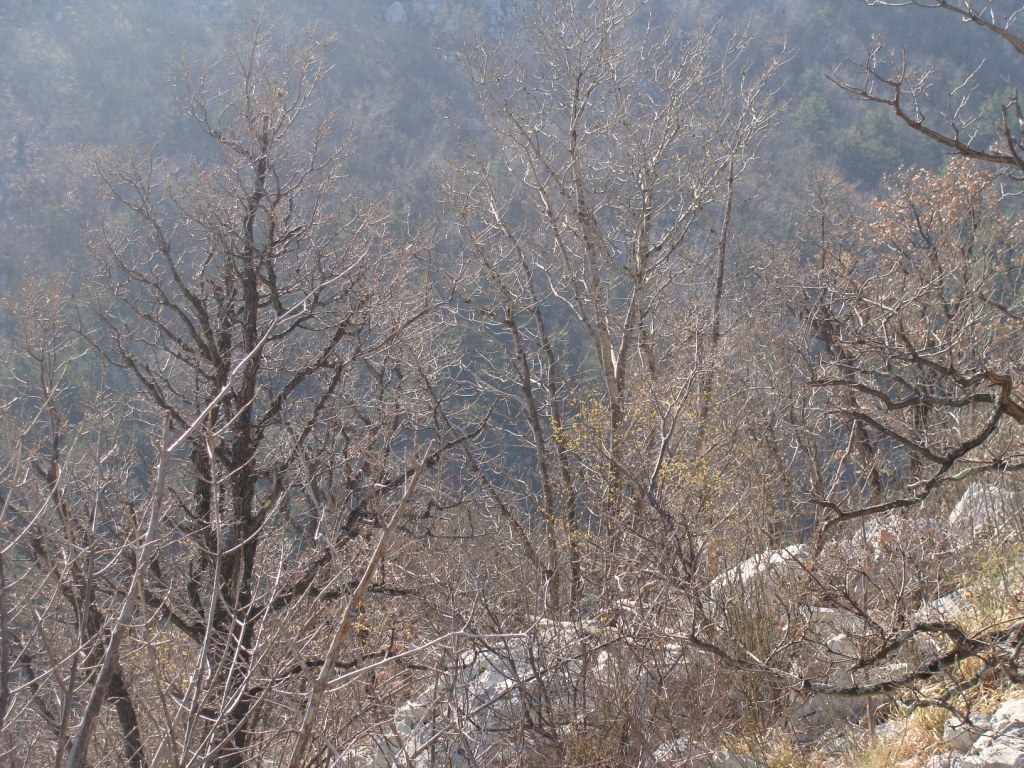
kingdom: Plantae
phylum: Tracheophyta
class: Magnoliopsida
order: Cornales
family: Cornaceae
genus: Cornus
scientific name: Cornus mas
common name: Cornelian-cherry
